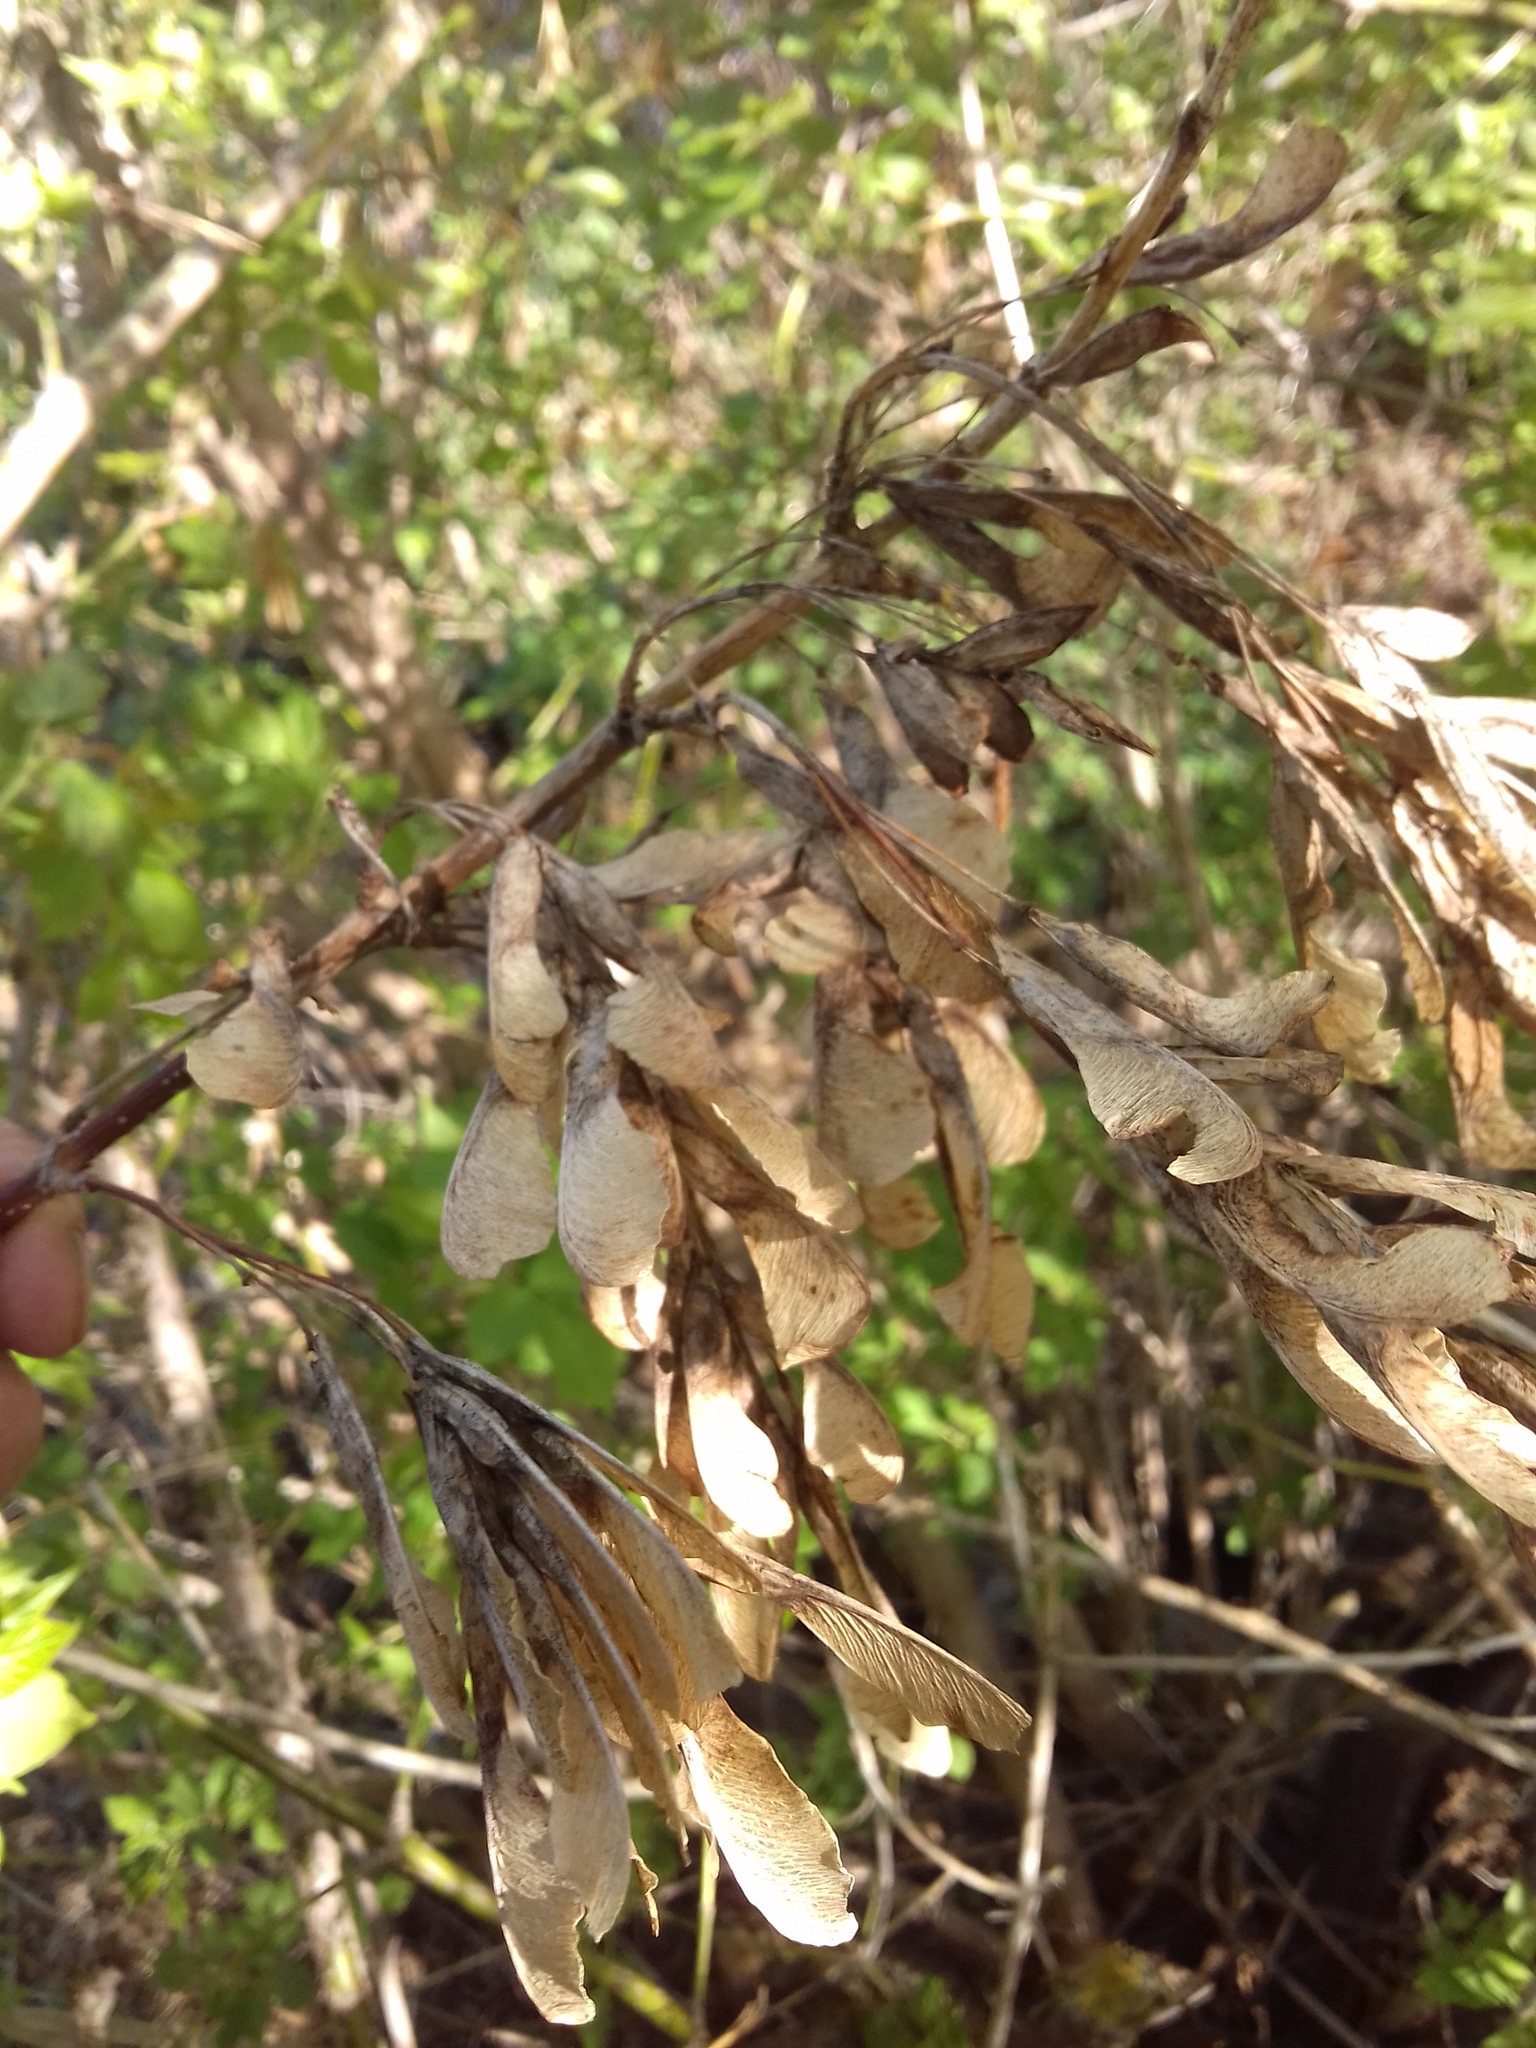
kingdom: Plantae
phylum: Tracheophyta
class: Magnoliopsida
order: Sapindales
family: Sapindaceae
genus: Acer
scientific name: Acer negundo
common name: Ashleaf maple
